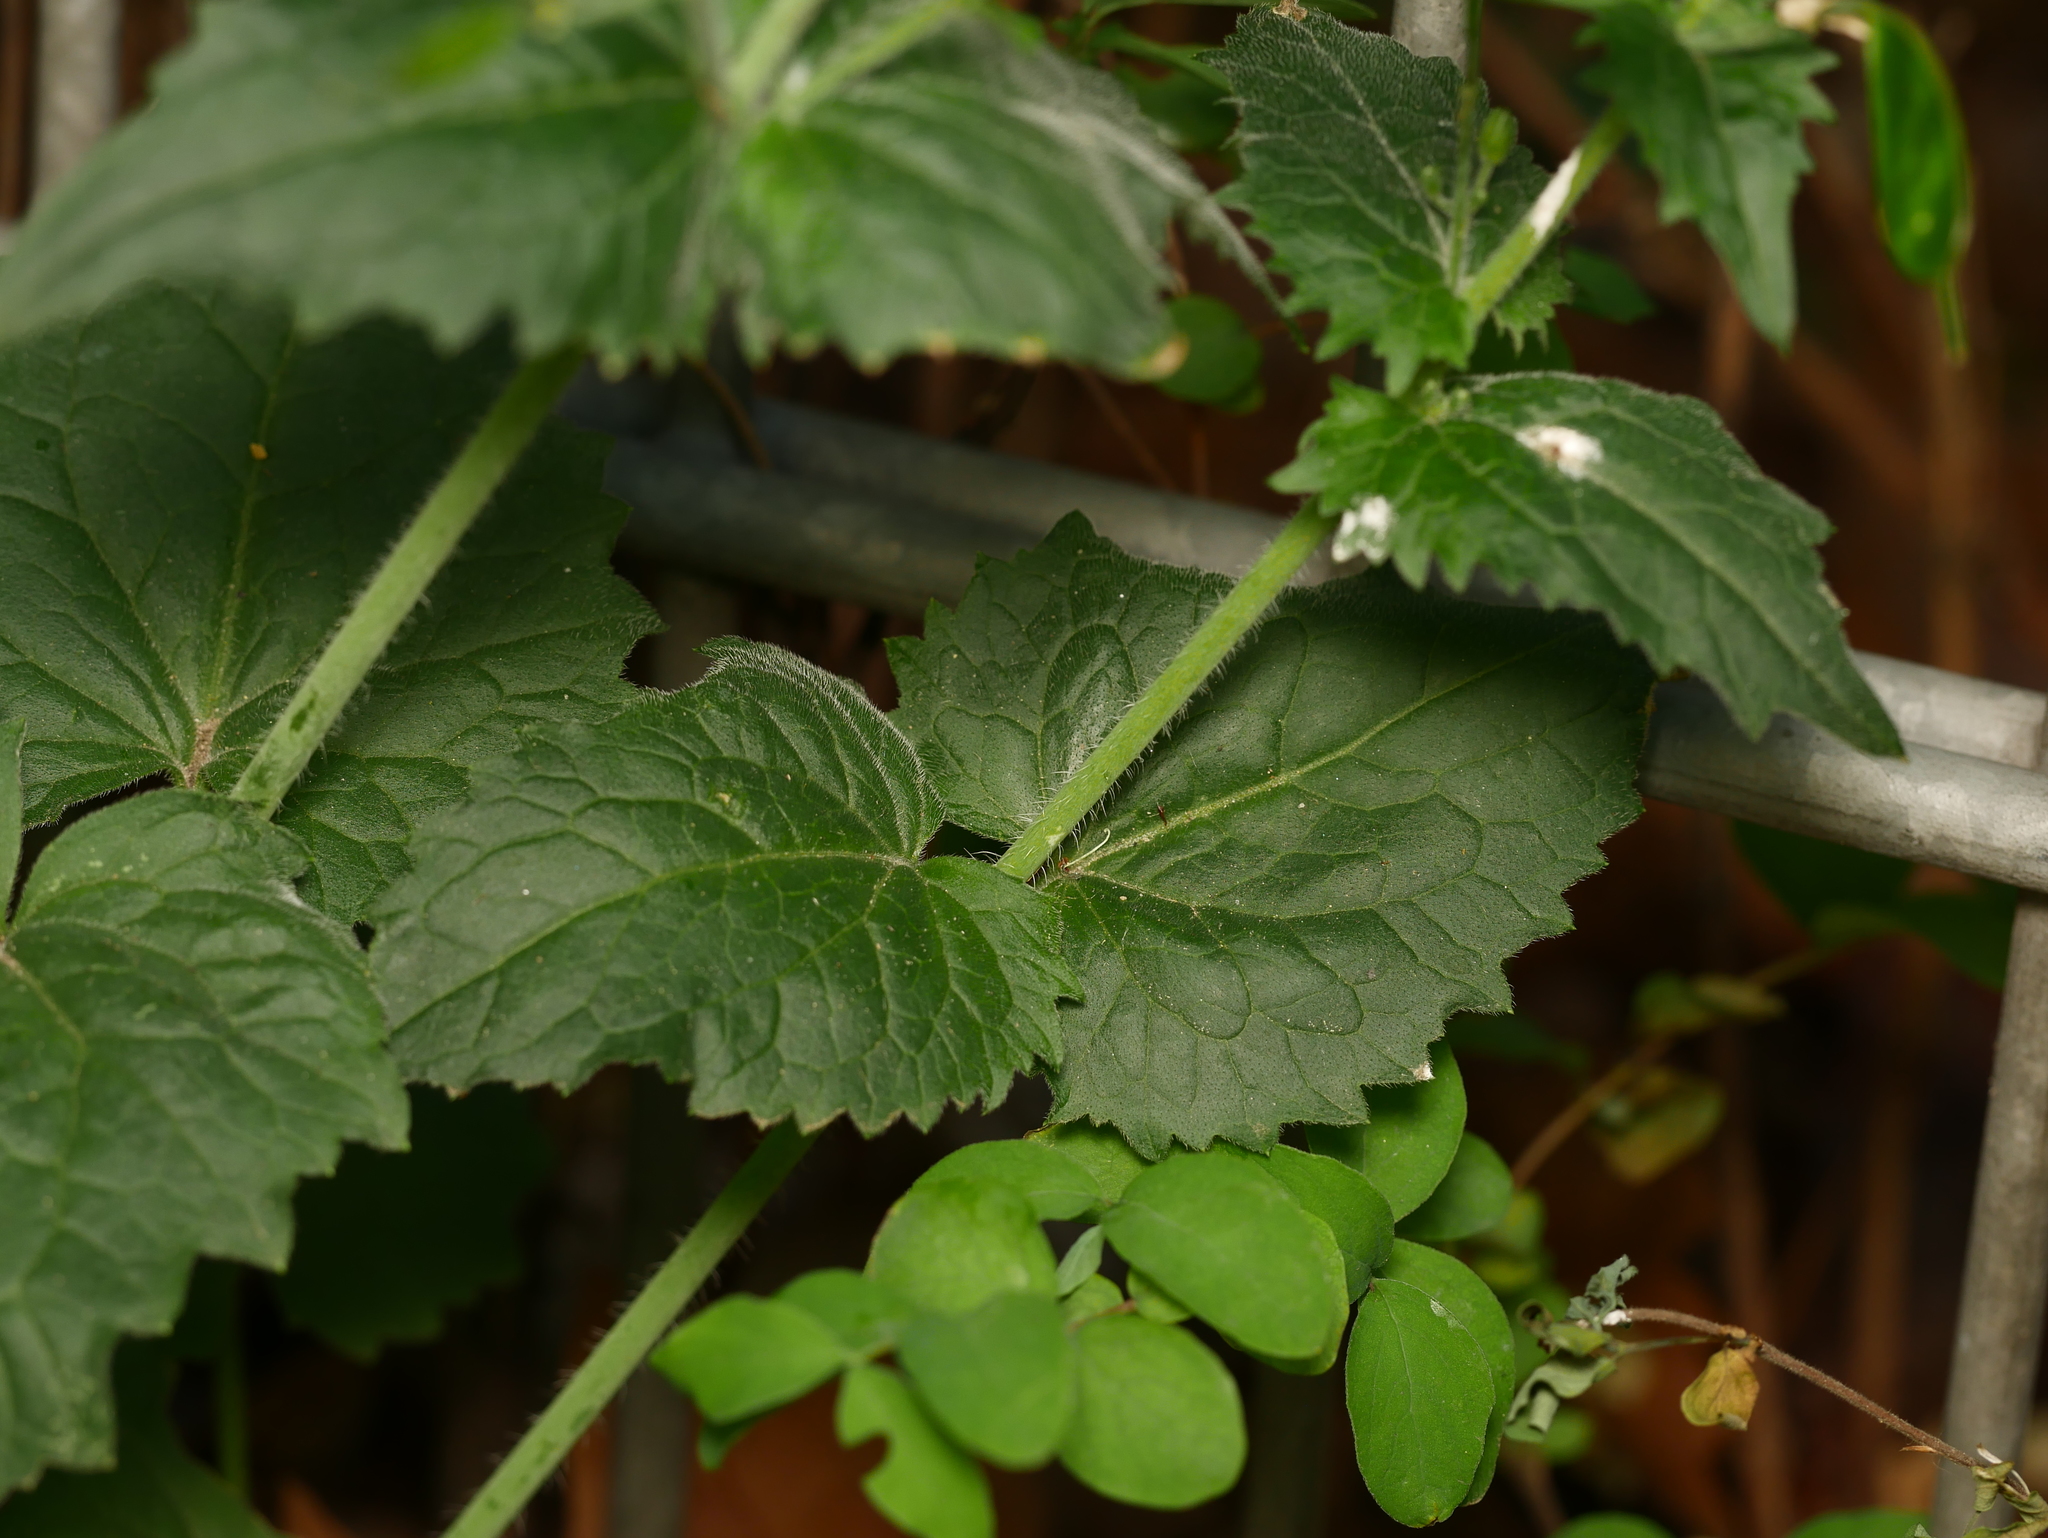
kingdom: Plantae
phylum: Tracheophyta
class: Magnoliopsida
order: Brassicales
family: Brassicaceae
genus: Lunaria
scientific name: Lunaria annua
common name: Honesty
